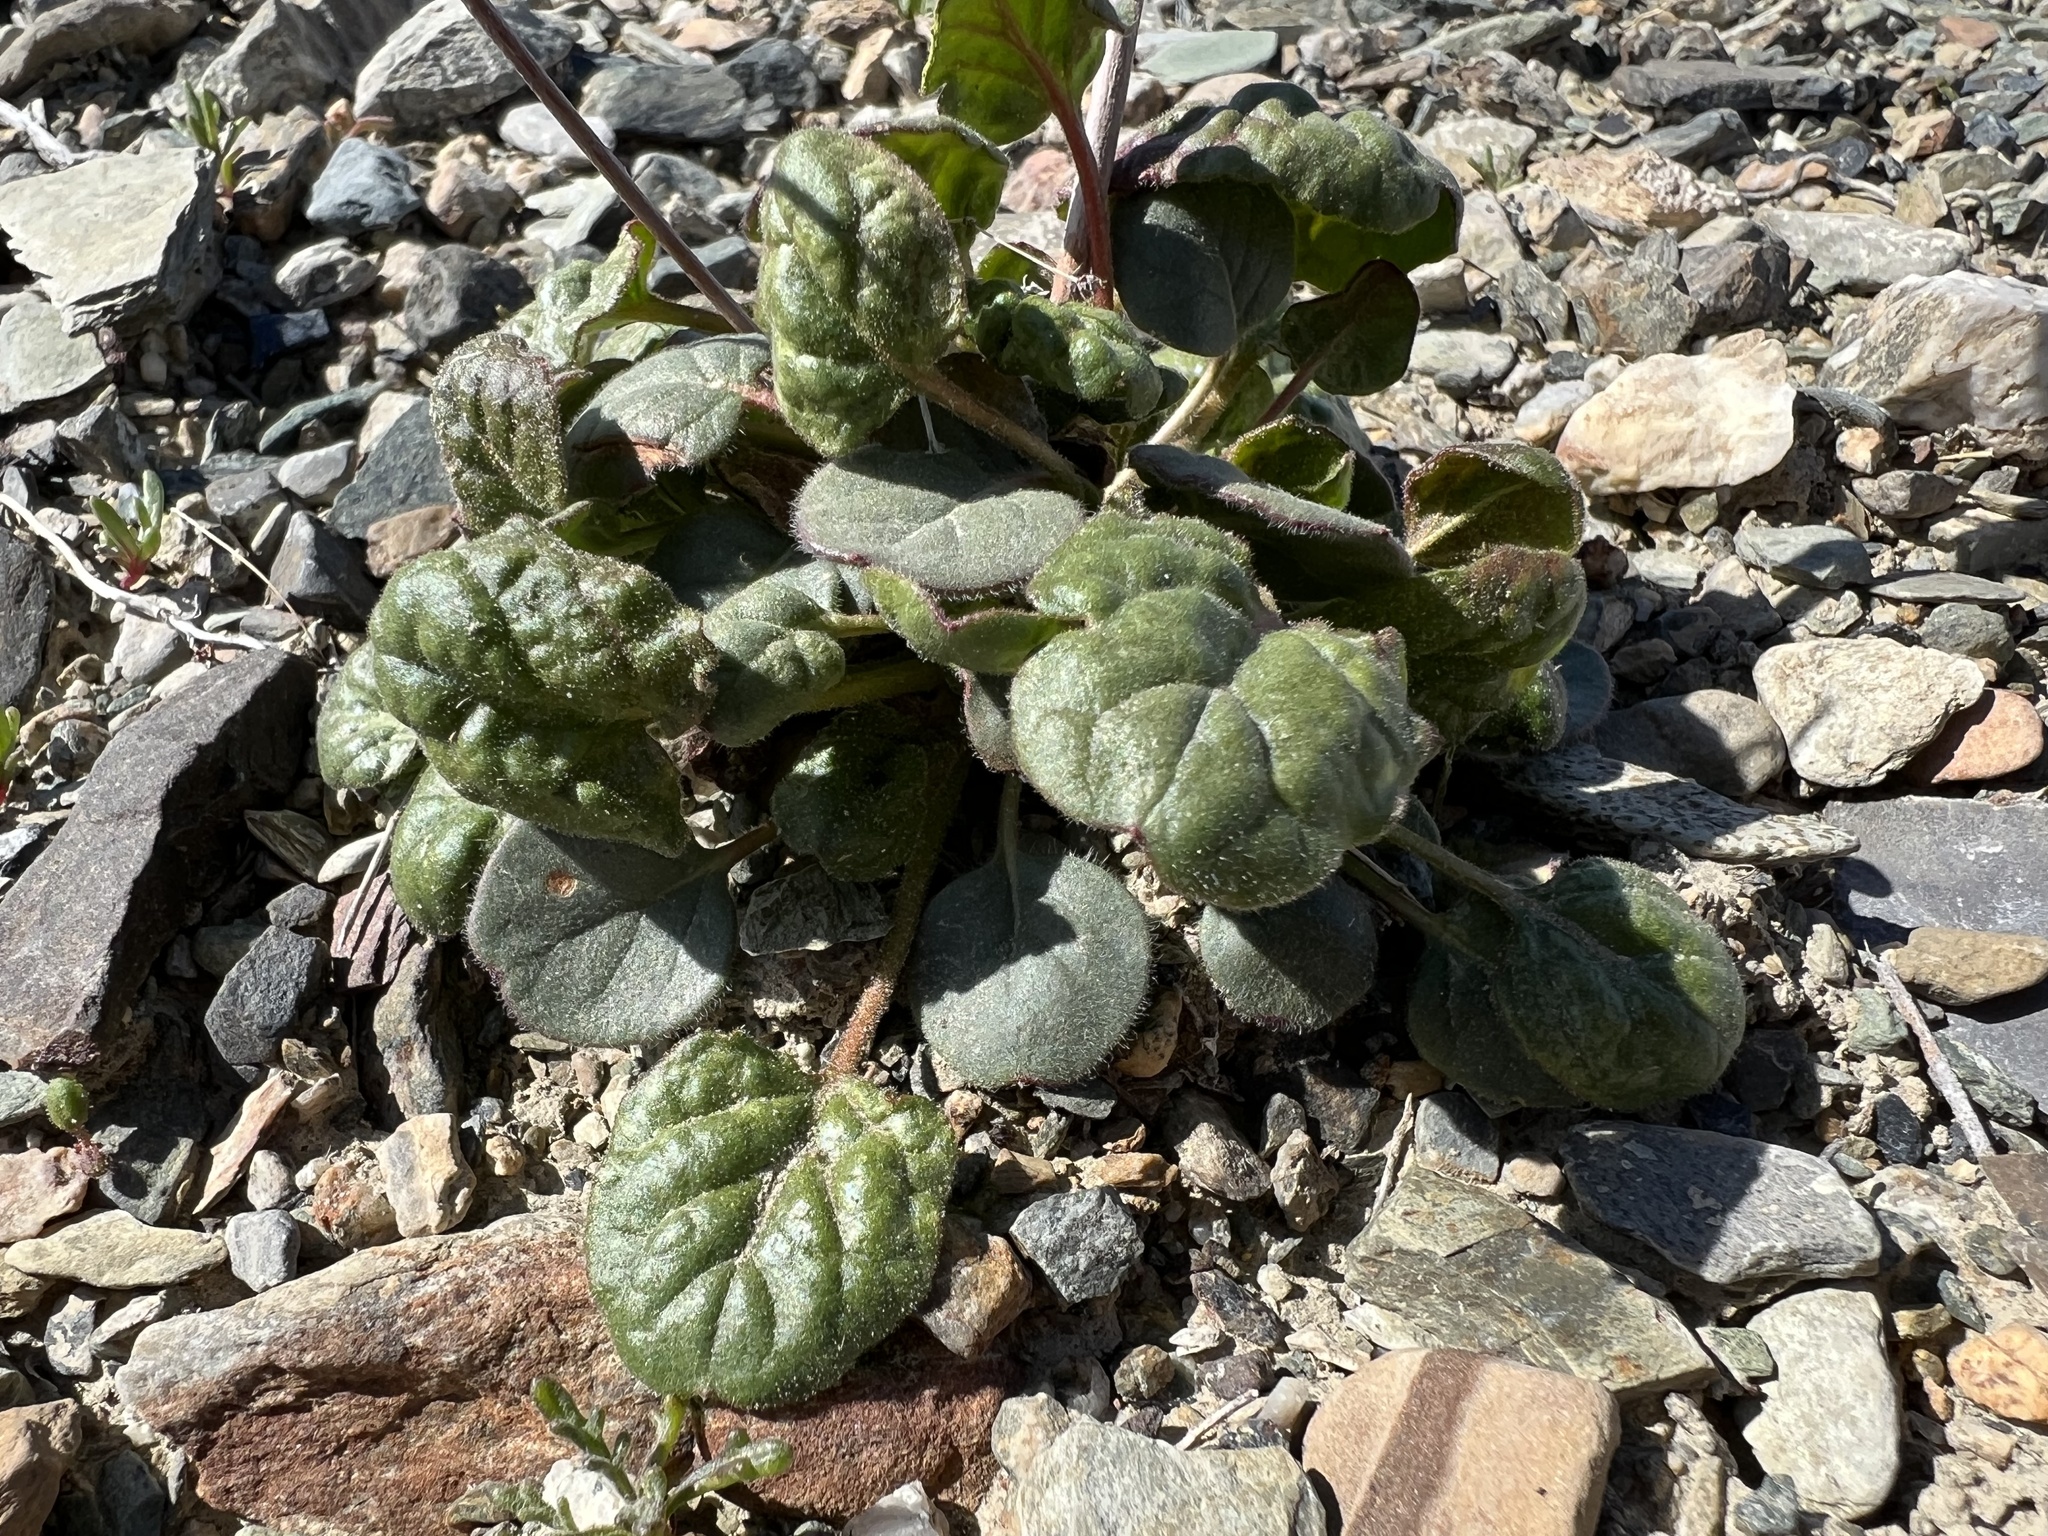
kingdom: Plantae
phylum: Tracheophyta
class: Magnoliopsida
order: Caryophyllales
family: Polygonaceae
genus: Eriogonum
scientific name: Eriogonum inflatum
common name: Desert trumpet
